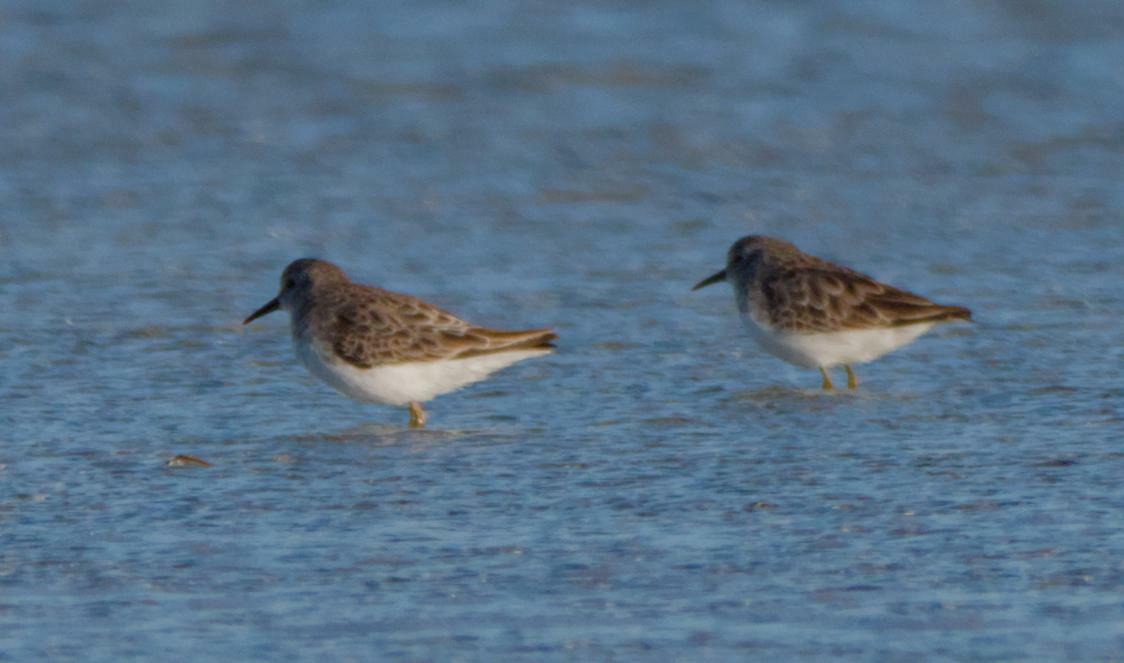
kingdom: Animalia
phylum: Chordata
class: Aves
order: Charadriiformes
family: Scolopacidae
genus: Calidris
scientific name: Calidris minutilla
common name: Least sandpiper
